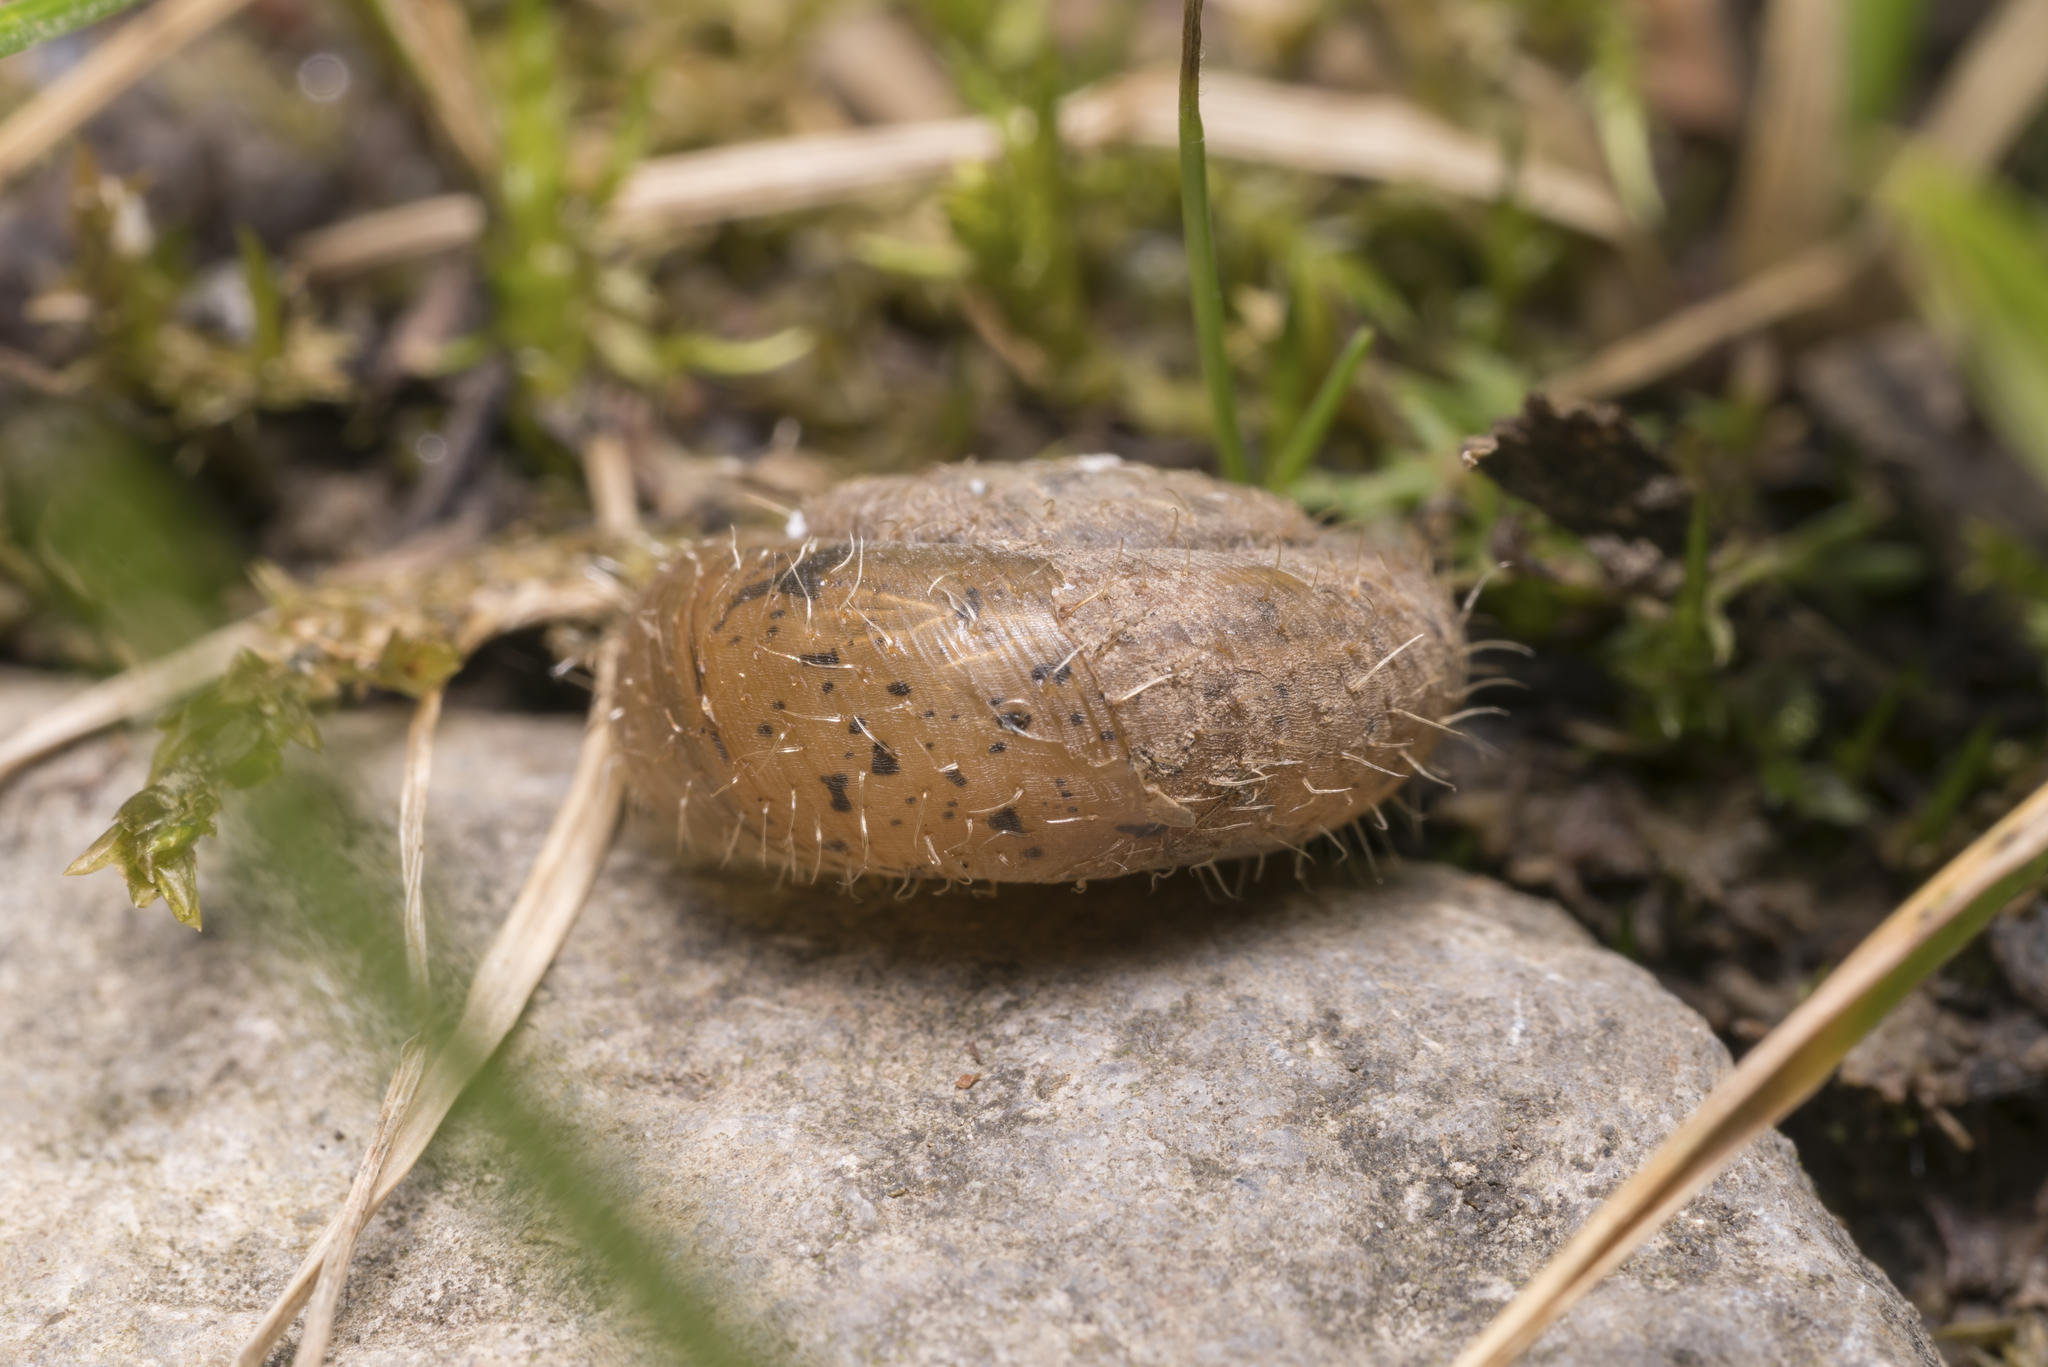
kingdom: Animalia
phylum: Mollusca
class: Gastropoda
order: Stylommatophora
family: Hygromiidae
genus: Trochulus
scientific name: Trochulus villosus
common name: Villous hairysnail
